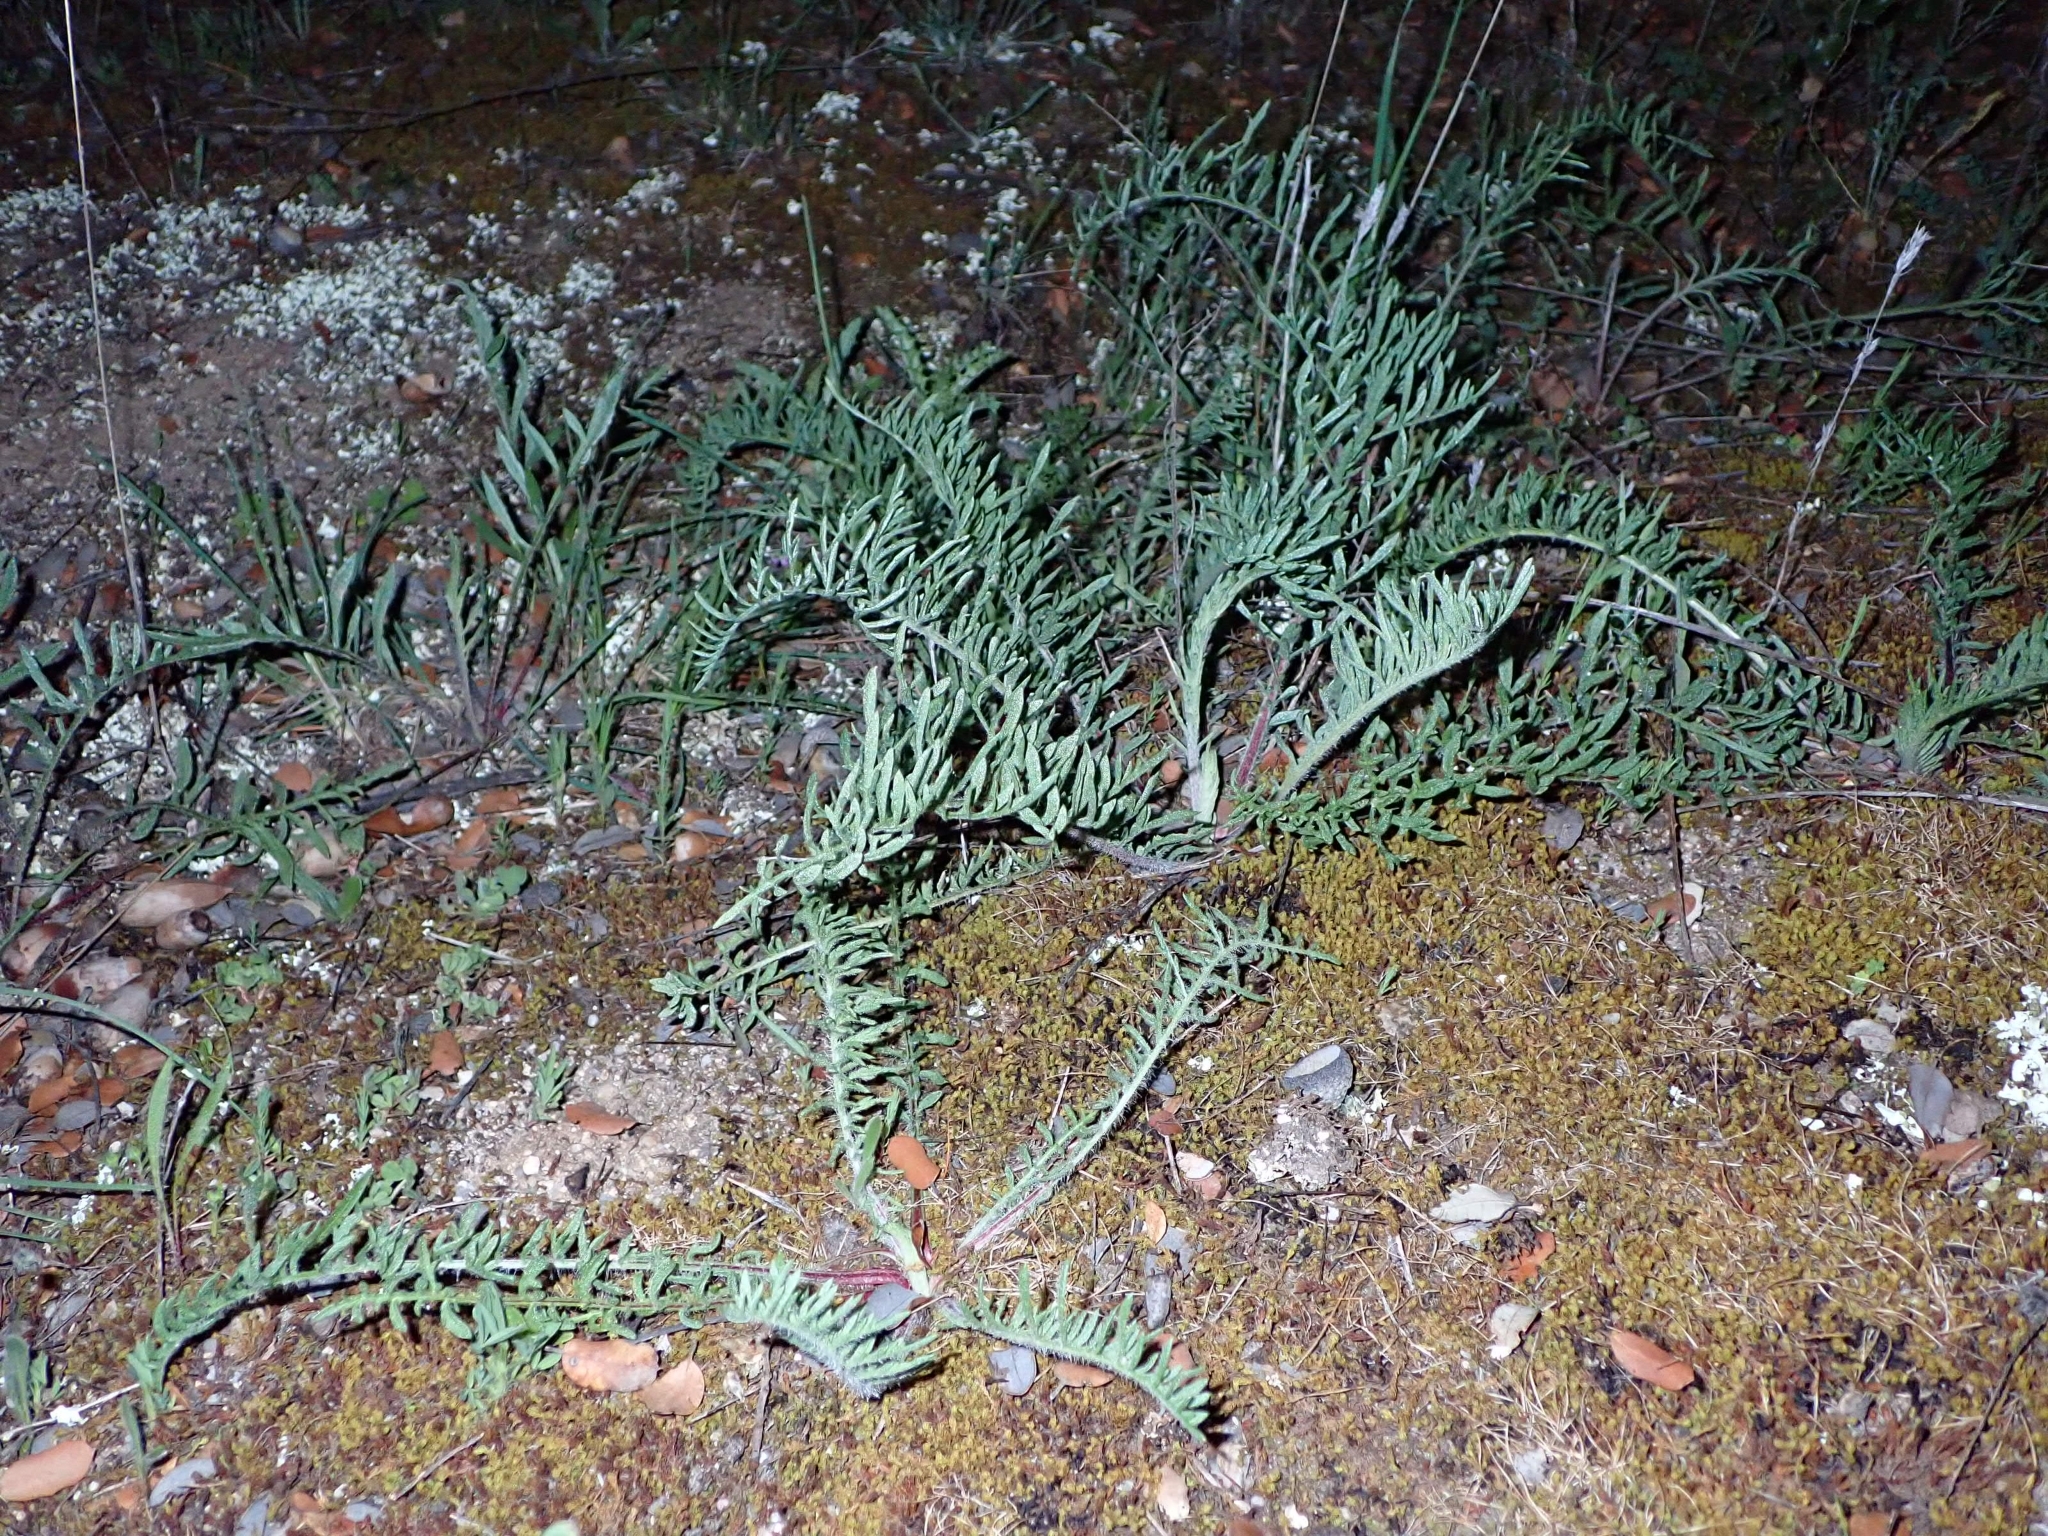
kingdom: Plantae
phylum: Tracheophyta
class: Magnoliopsida
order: Asterales
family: Asteraceae
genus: Centaurea
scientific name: Centaurea ornata
